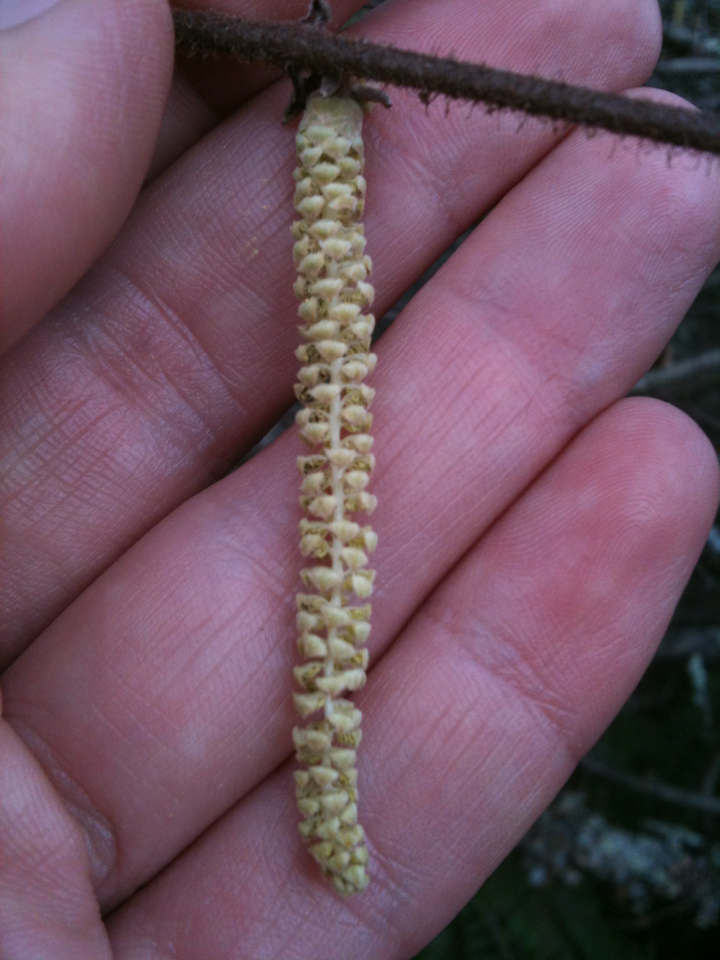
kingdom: Plantae
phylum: Tracheophyta
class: Magnoliopsida
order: Fagales
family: Betulaceae
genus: Corylus
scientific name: Corylus cornuta
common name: Beaked hazel
